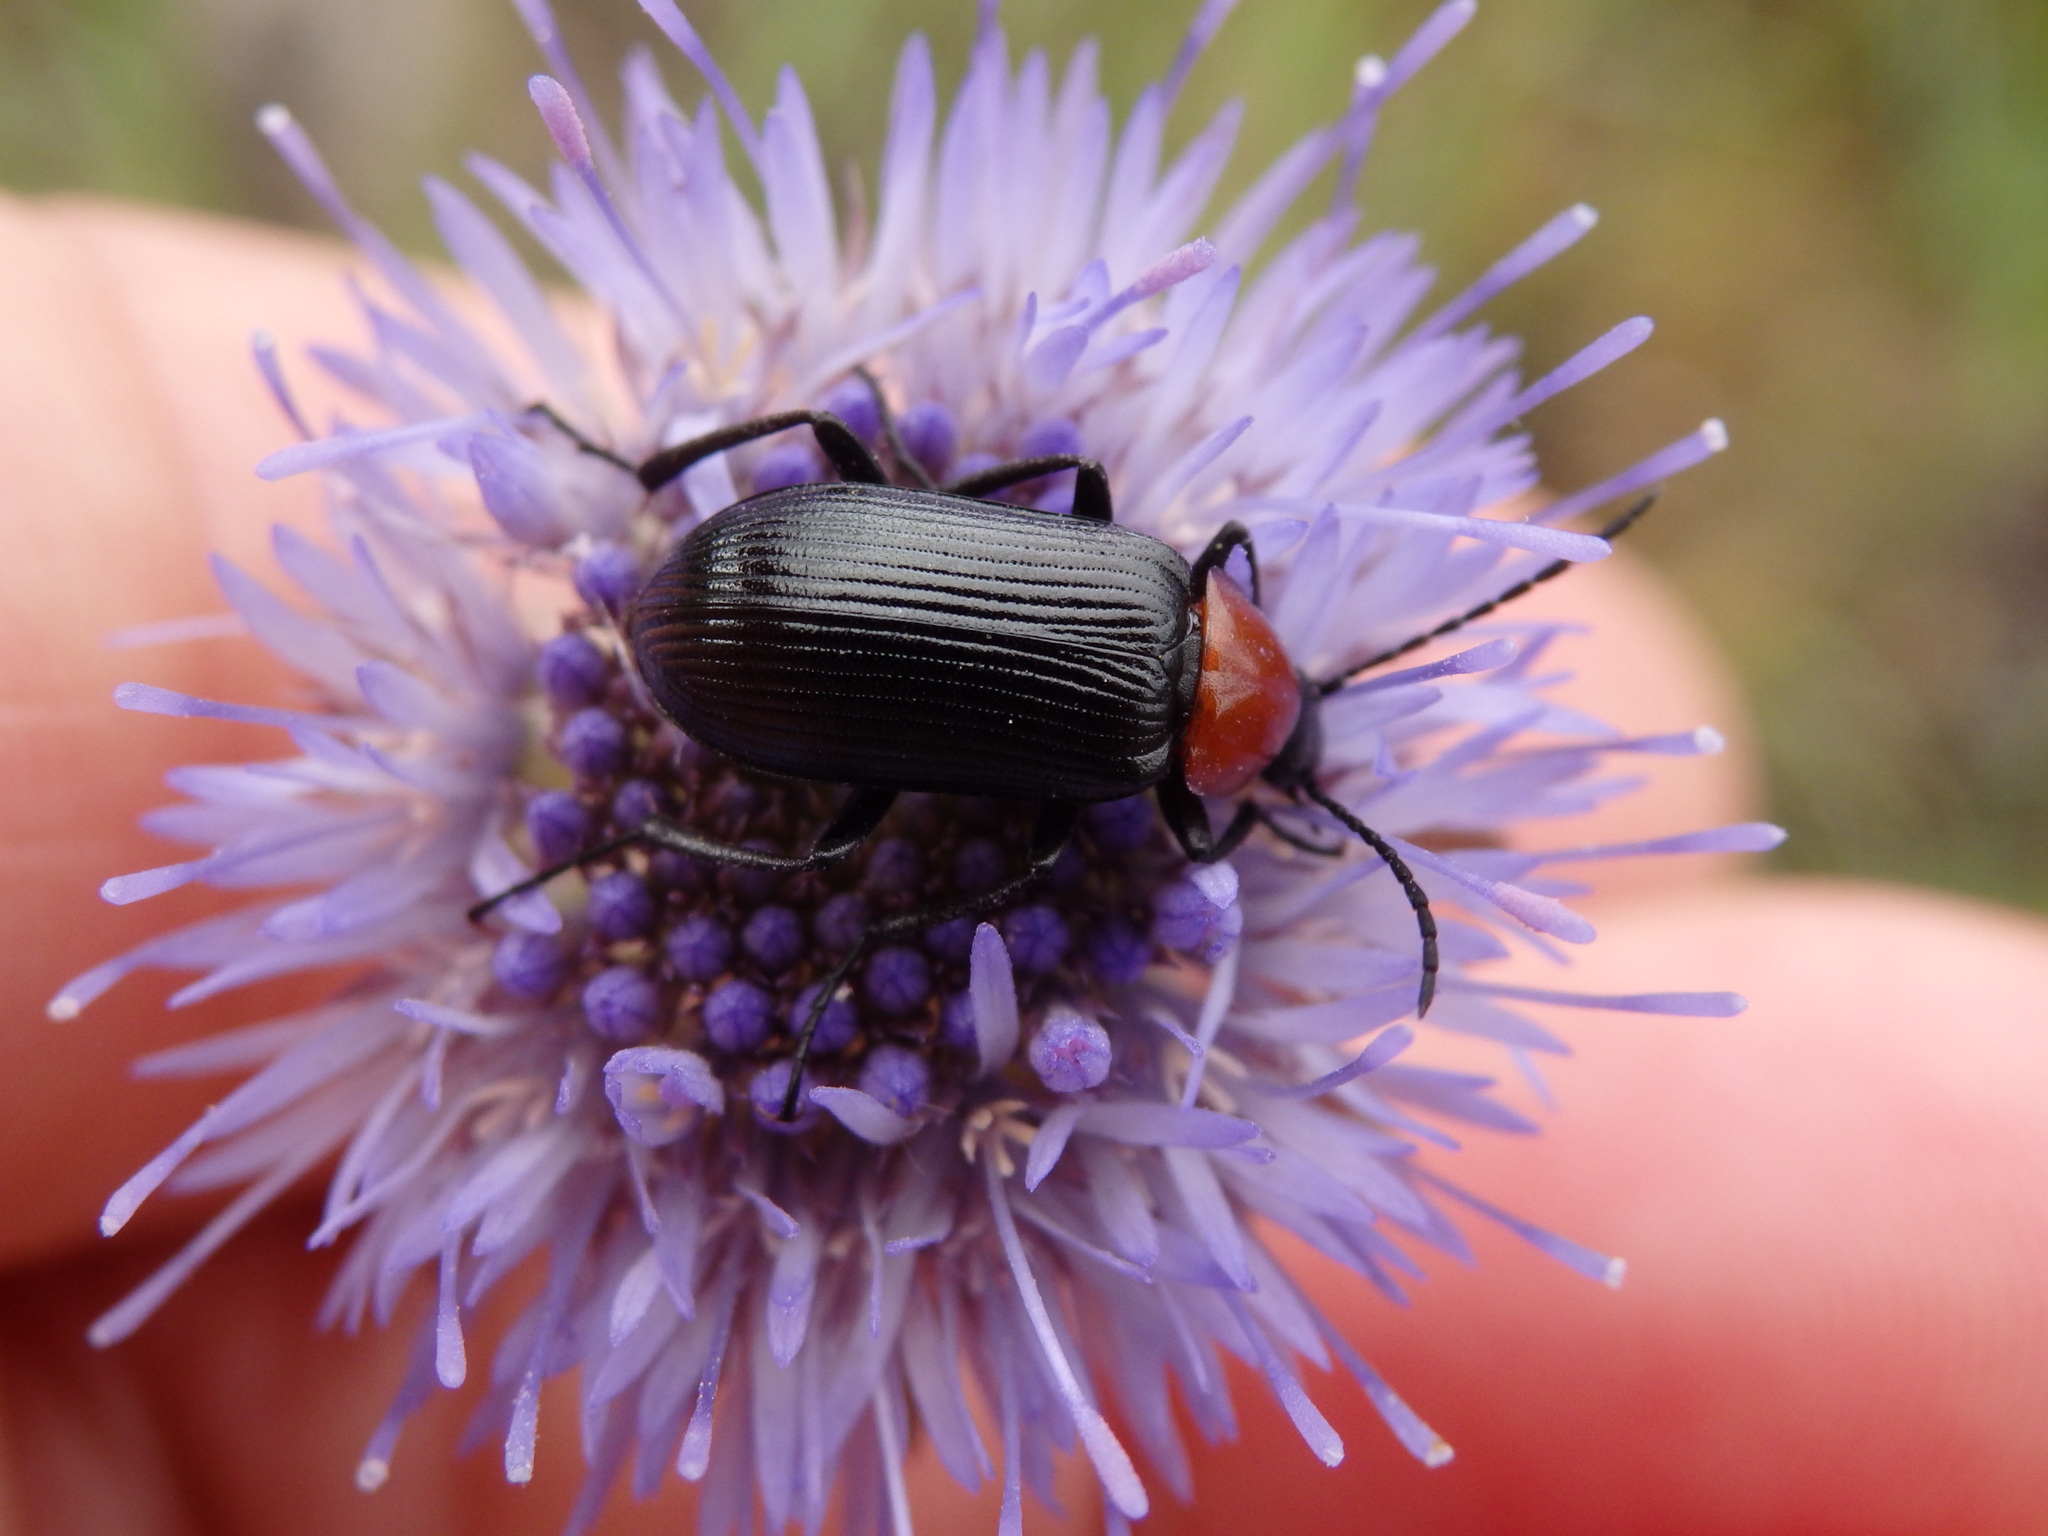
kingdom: Animalia
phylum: Arthropoda
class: Insecta
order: Coleoptera
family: Tenebrionidae
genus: Heliotaurus
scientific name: Heliotaurus ruficollis
